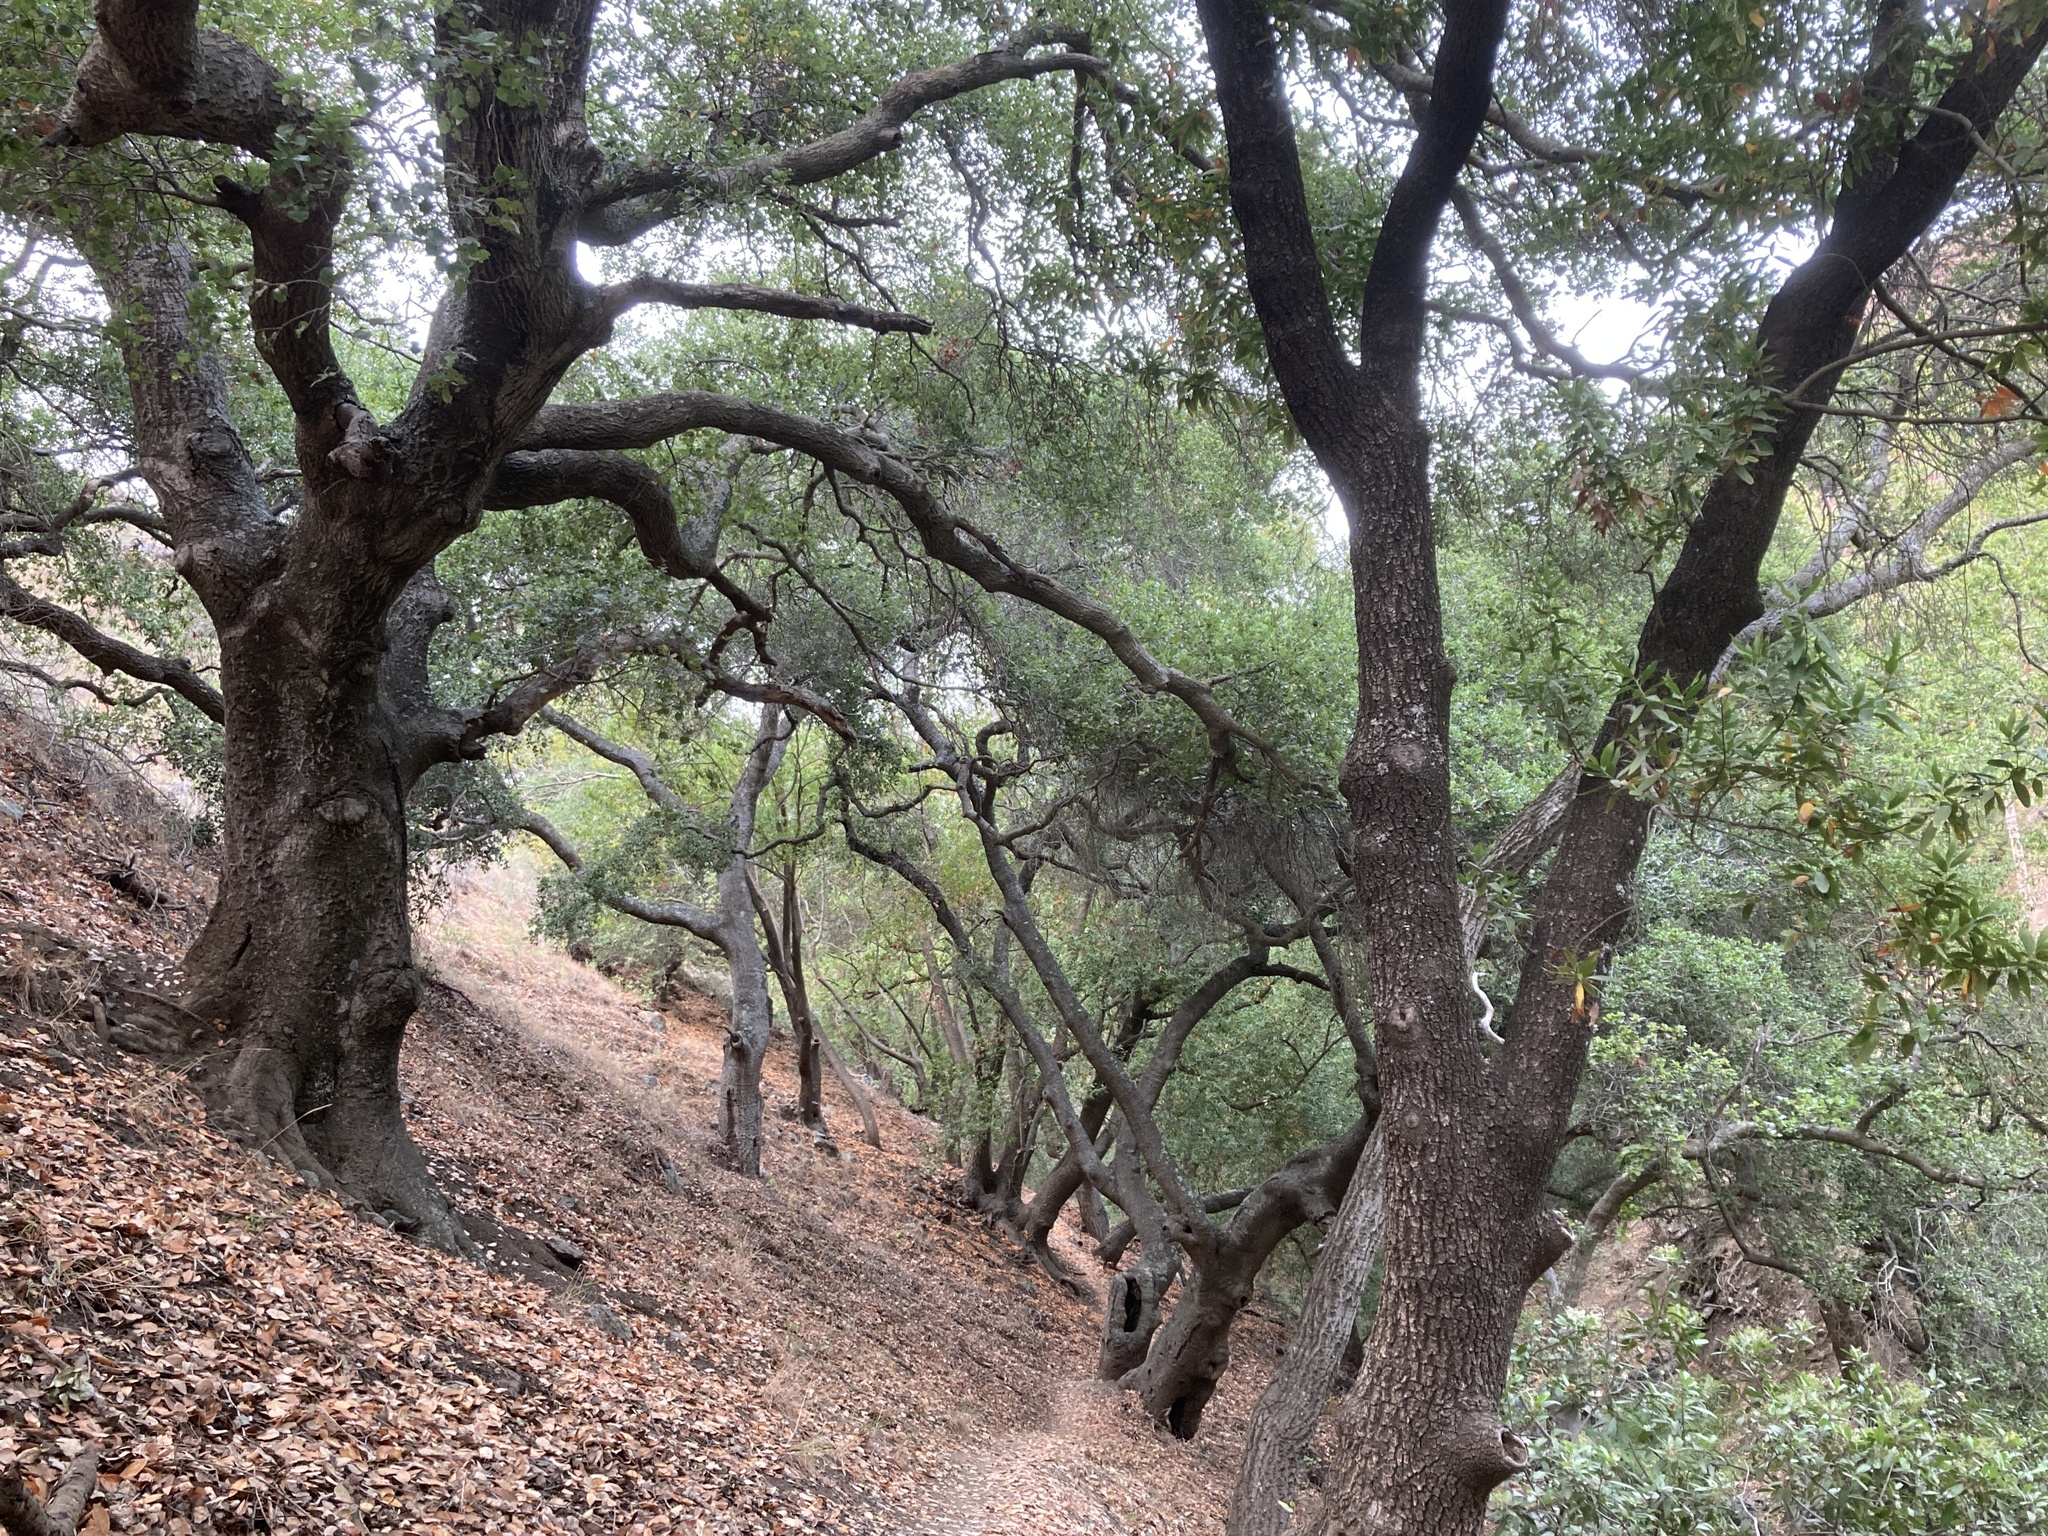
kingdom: Plantae
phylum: Tracheophyta
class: Magnoliopsida
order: Fagales
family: Fagaceae
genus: Quercus
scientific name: Quercus agrifolia
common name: California live oak
